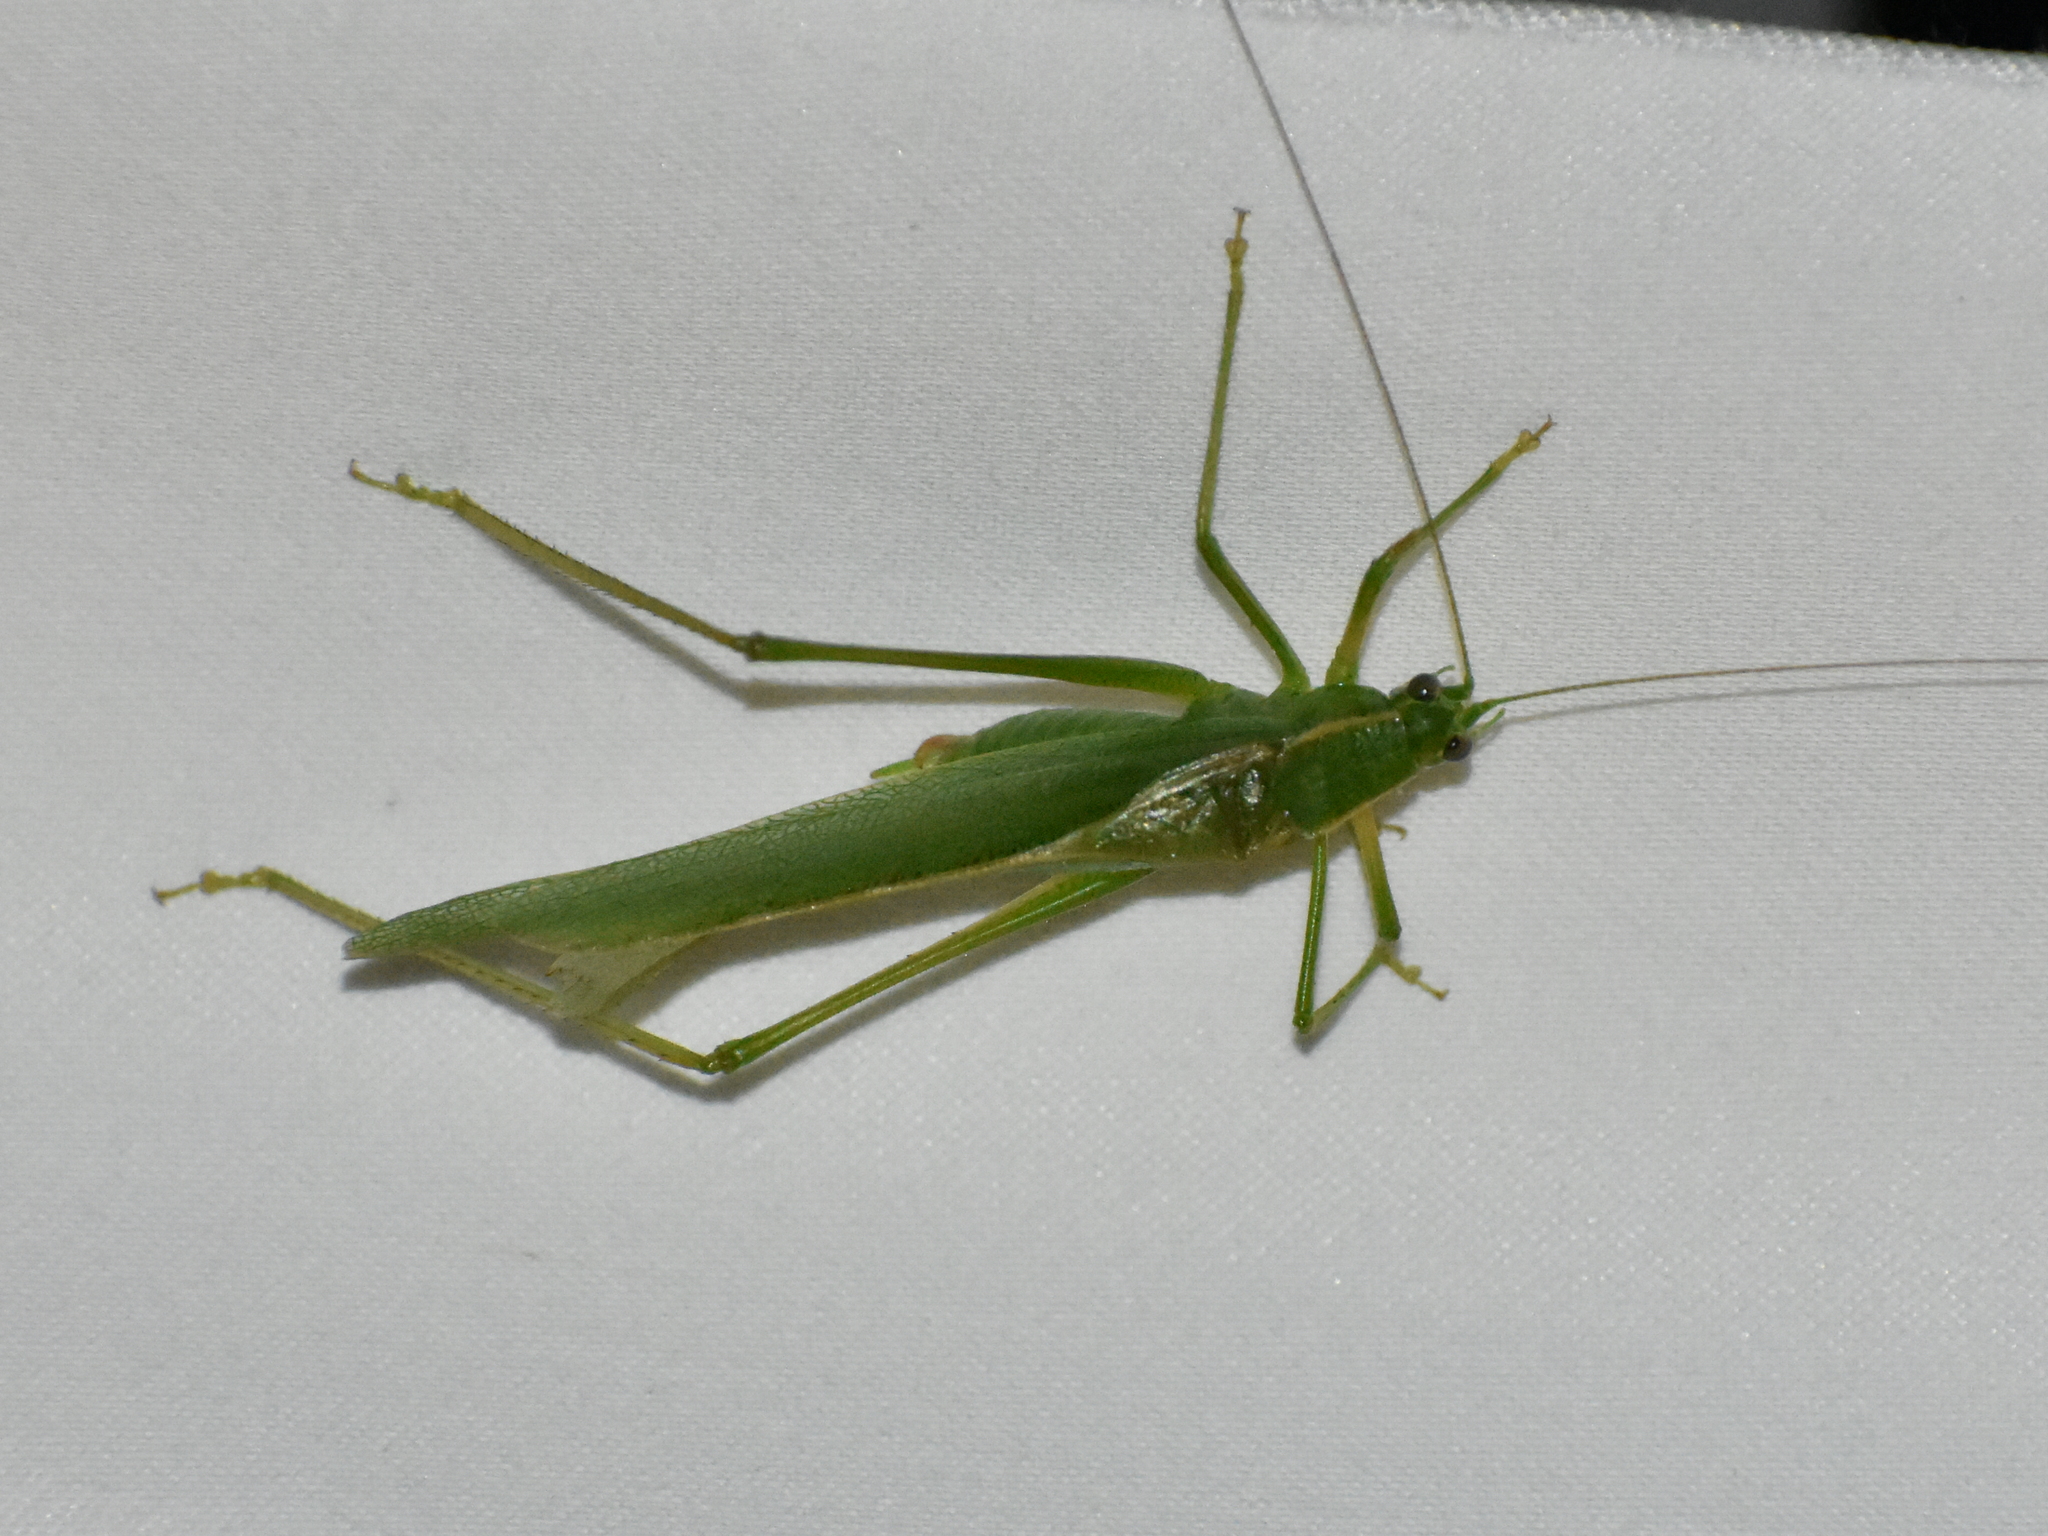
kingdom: Animalia
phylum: Arthropoda
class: Insecta
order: Orthoptera
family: Tettigoniidae
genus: Scudderia
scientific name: Scudderia septentrionalis
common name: Northern bush-katydid
